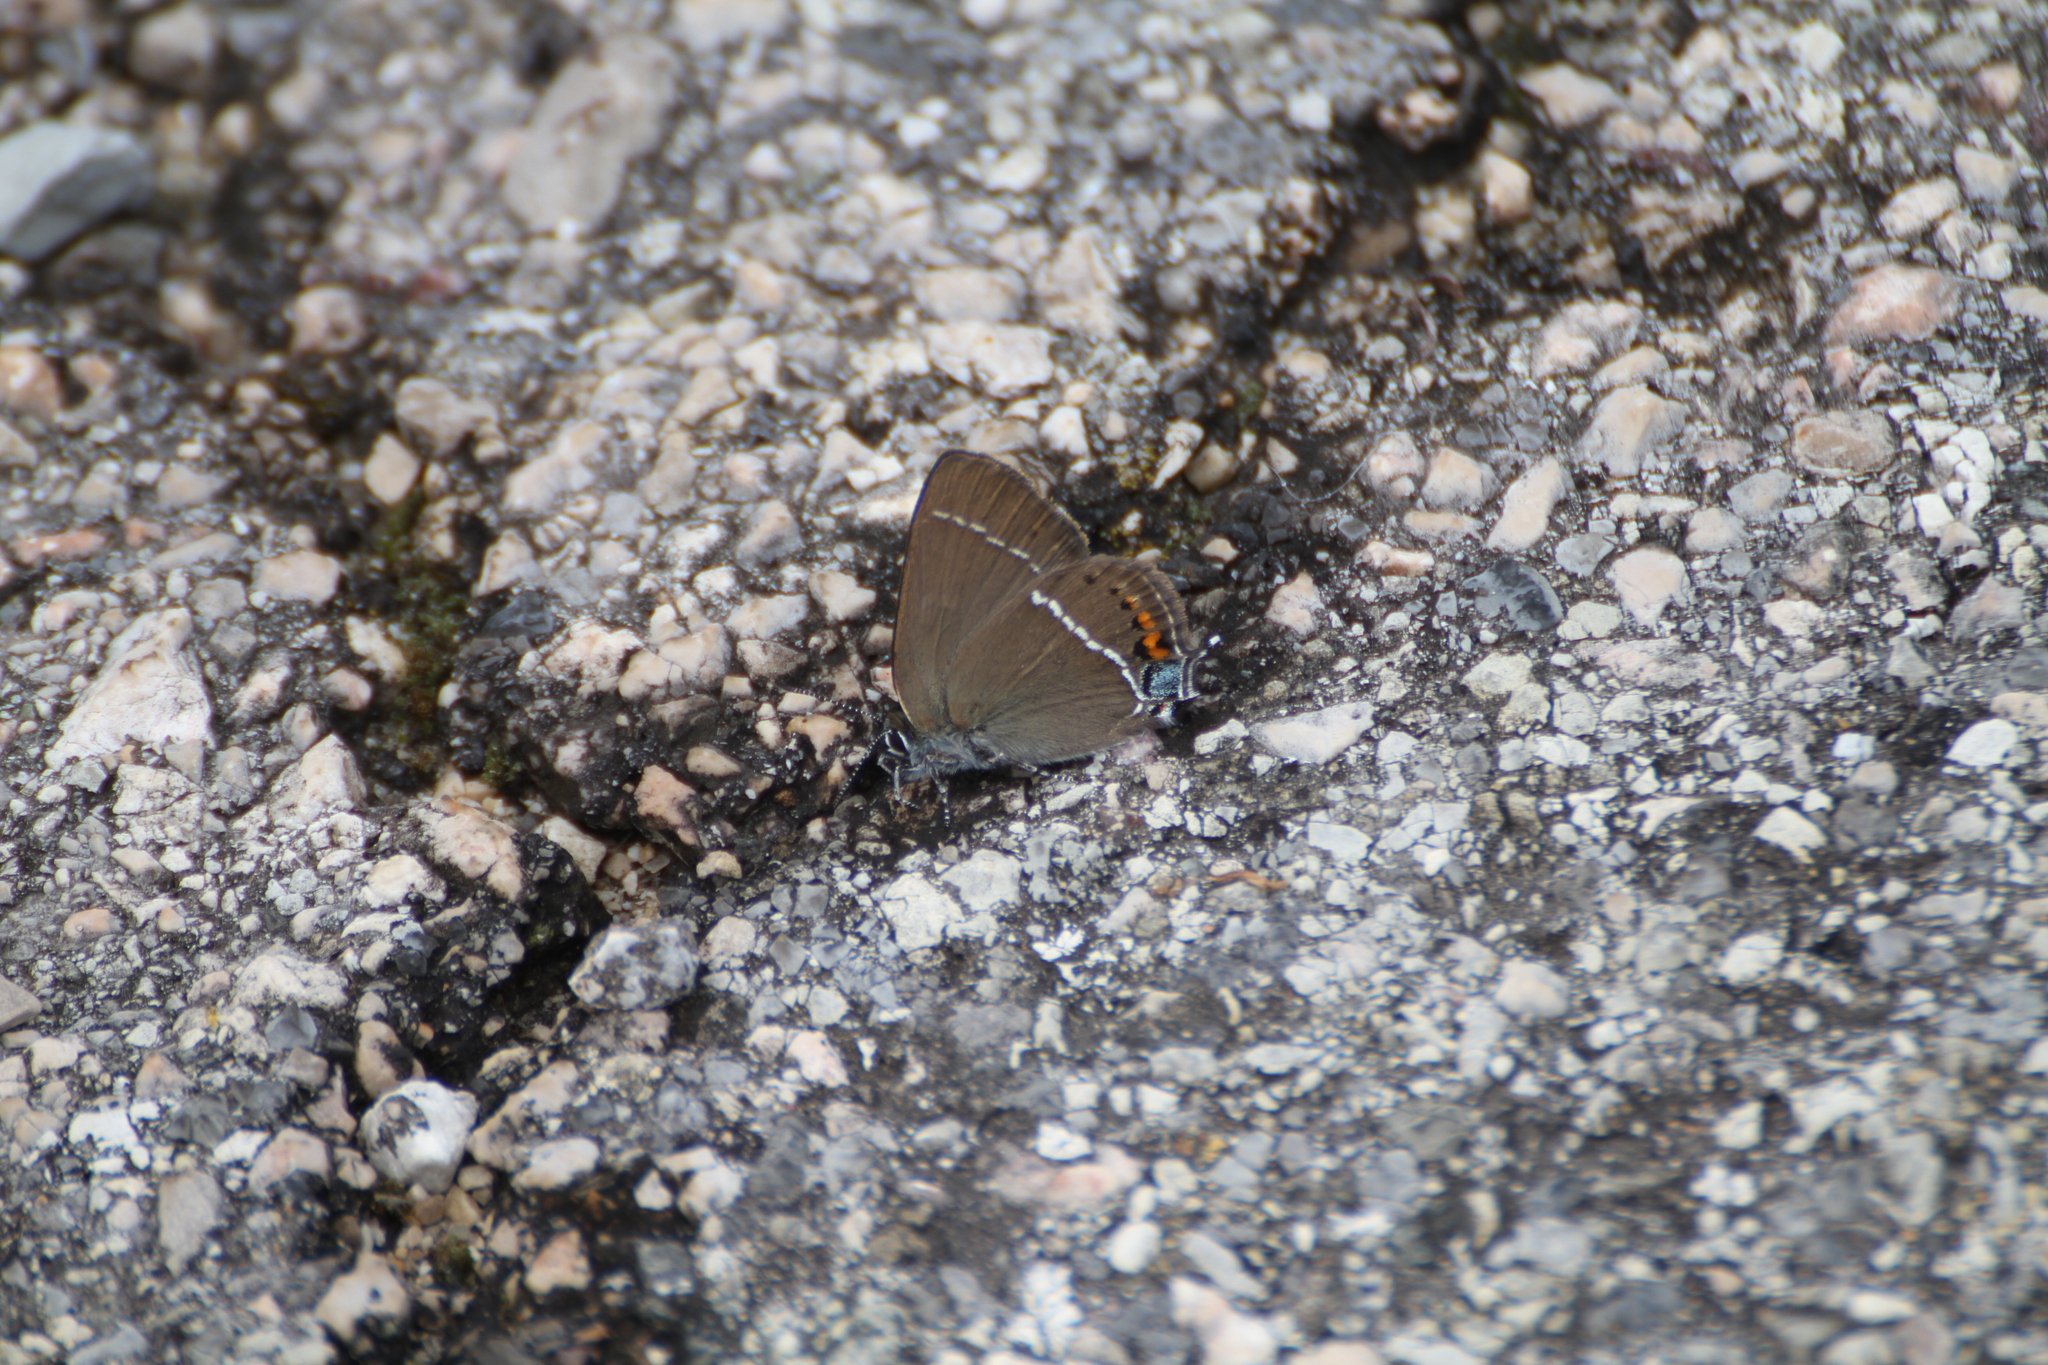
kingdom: Animalia
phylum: Arthropoda
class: Insecta
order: Lepidoptera
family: Lycaenidae
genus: Tuttiola
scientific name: Tuttiola spini
